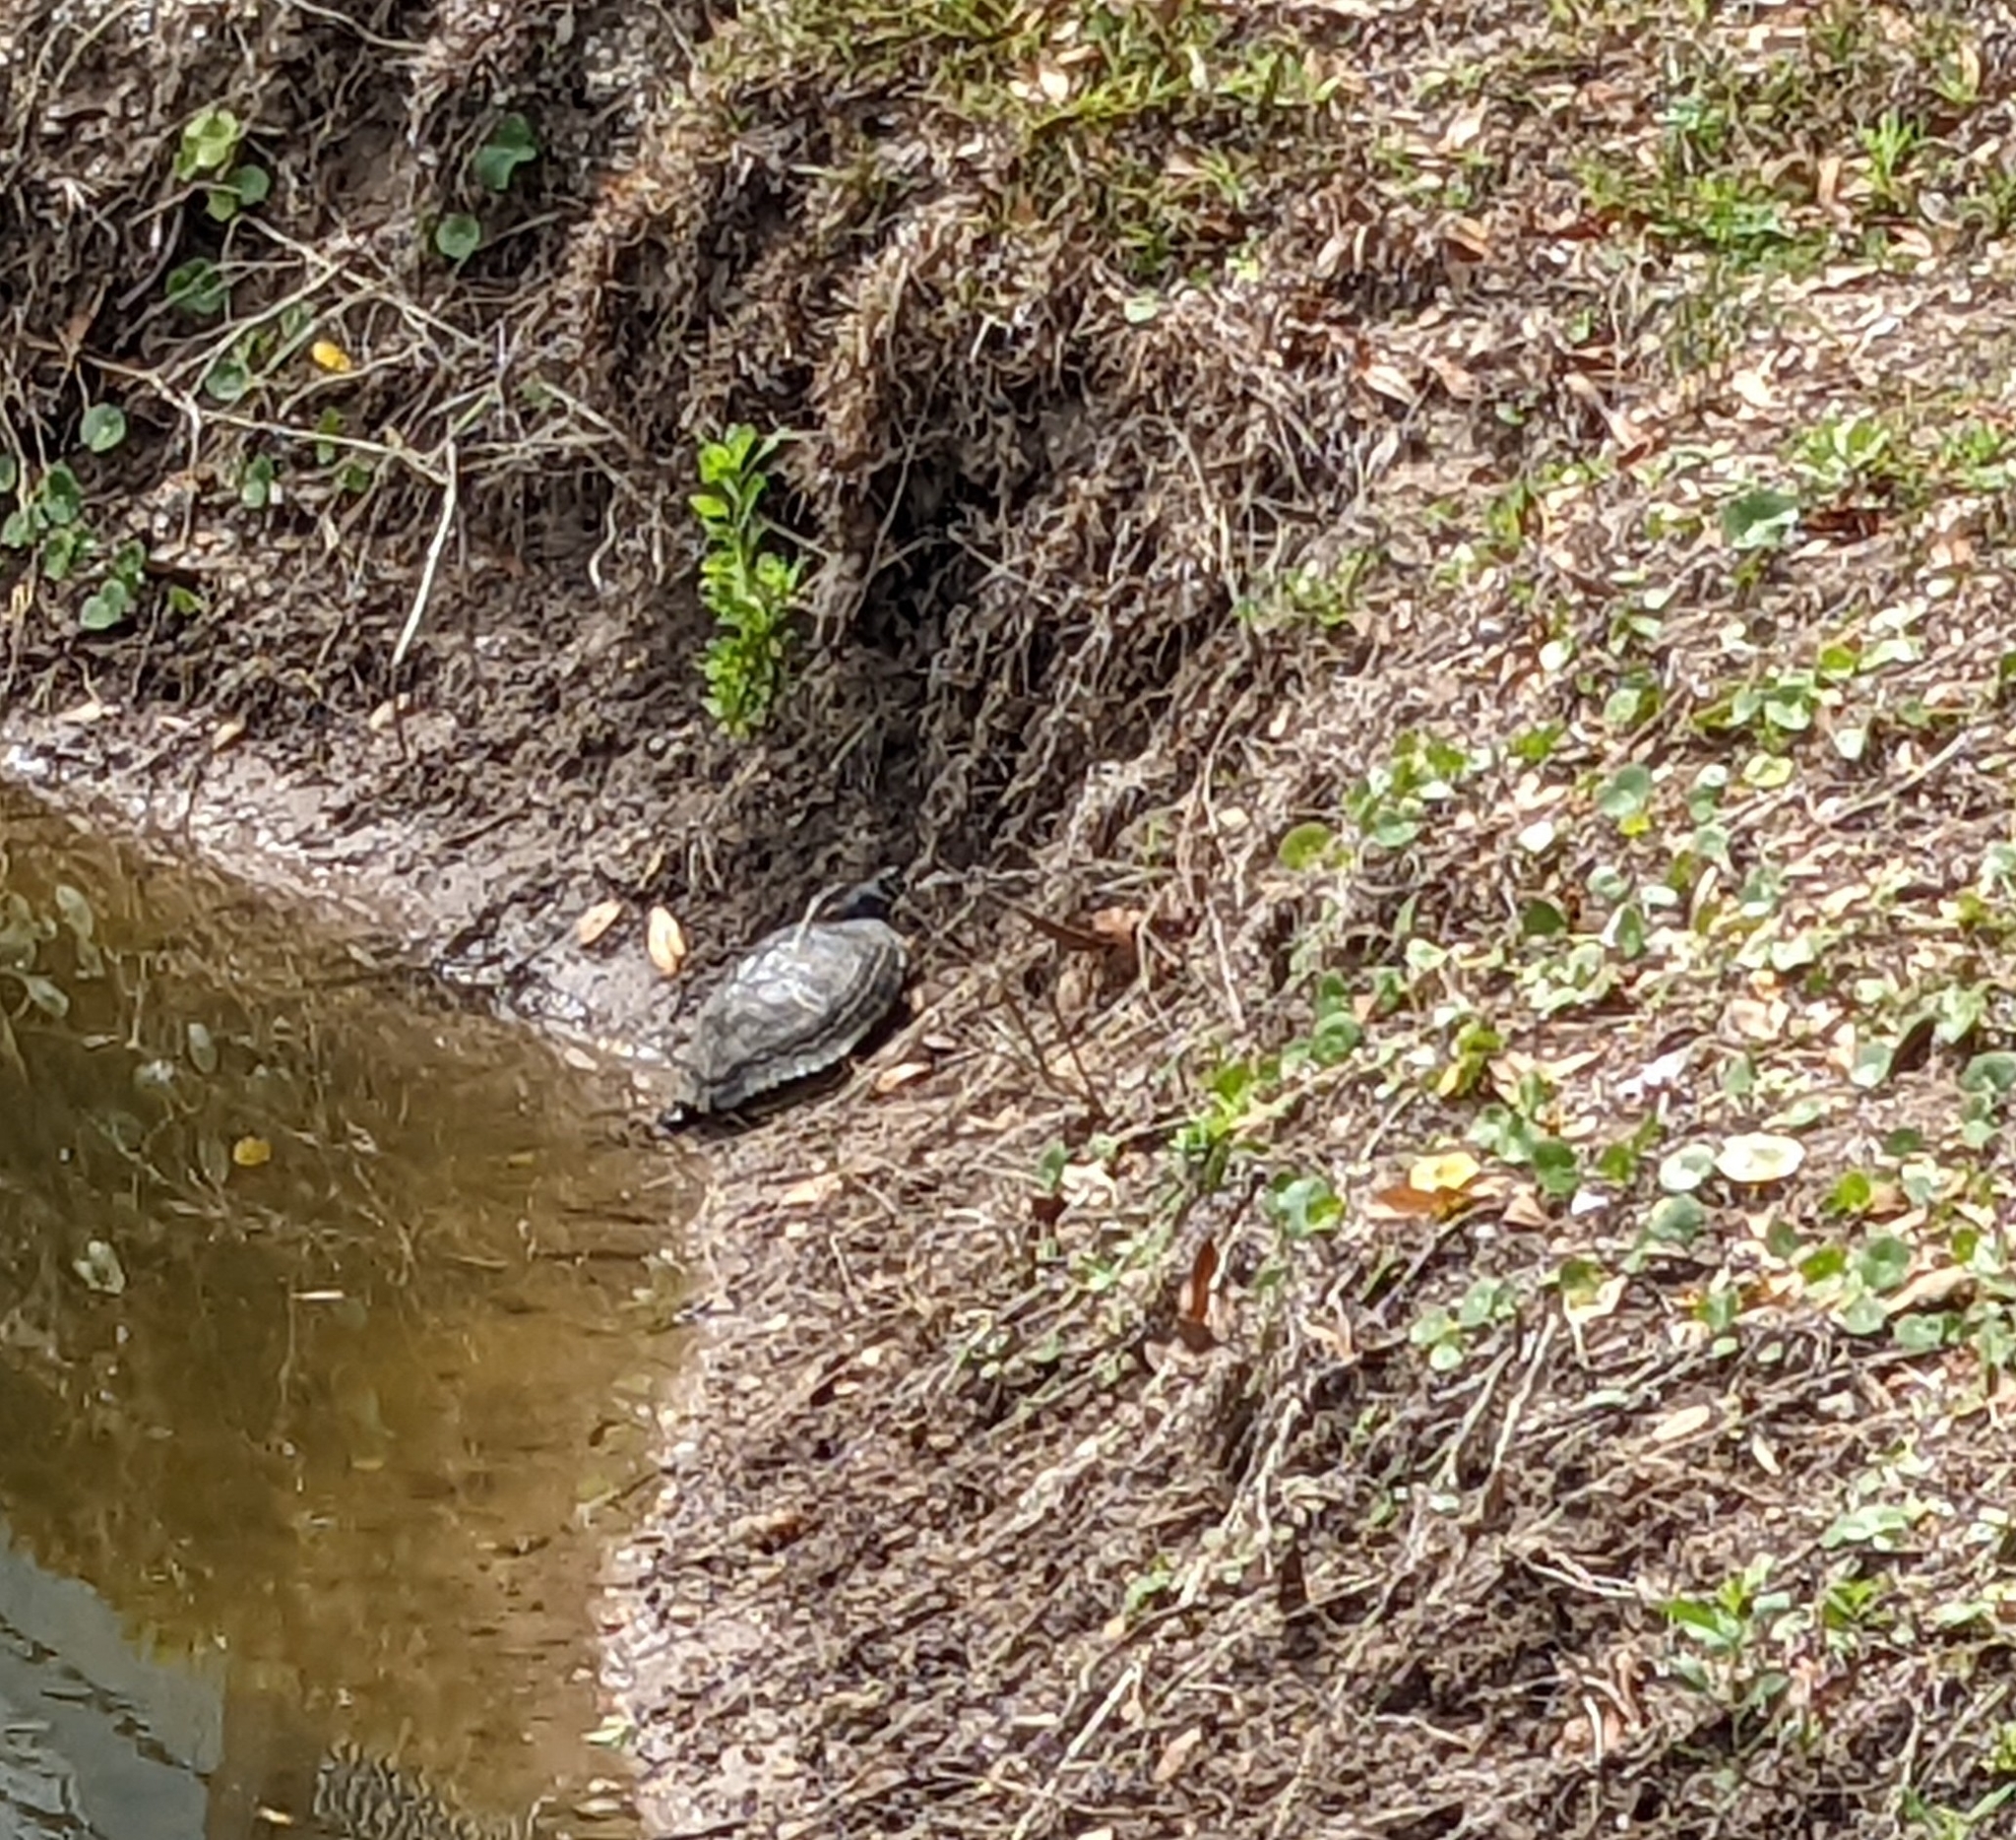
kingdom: Animalia
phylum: Chordata
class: Testudines
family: Emydidae
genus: Trachemys
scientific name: Trachemys scripta
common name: Slider
